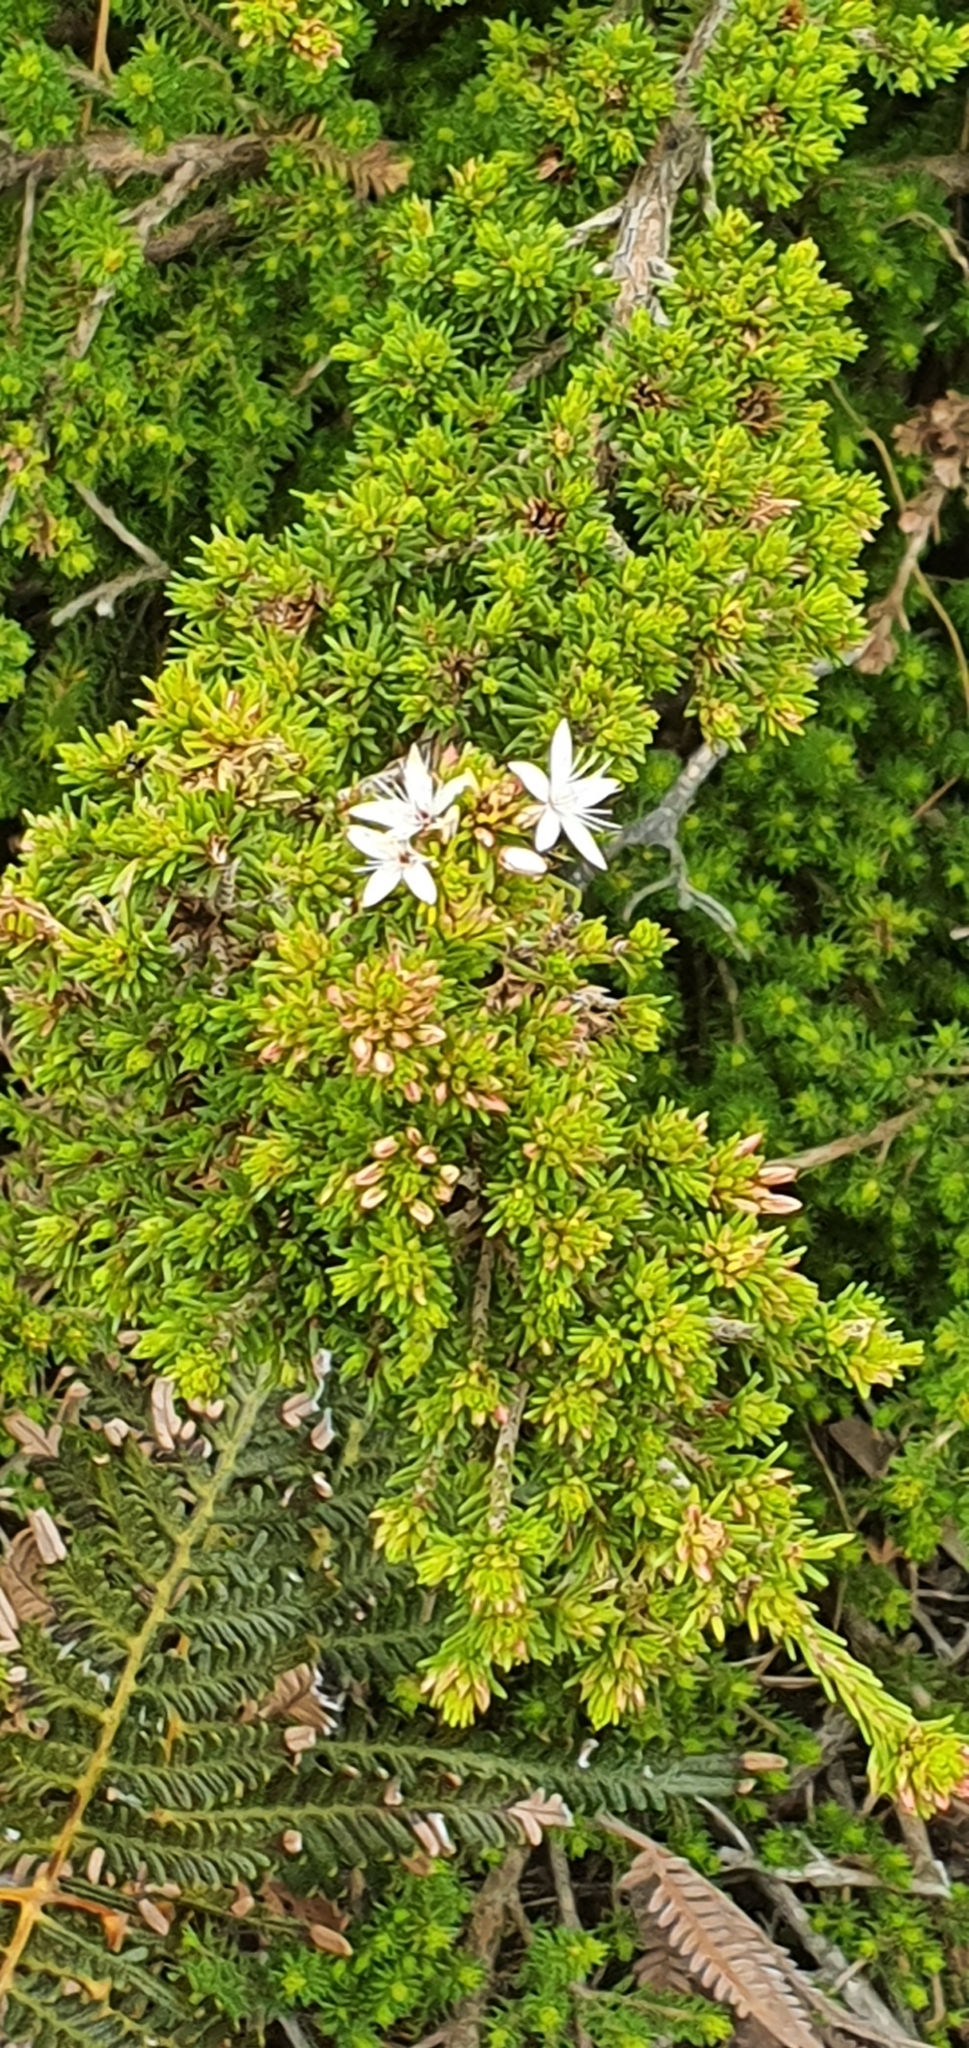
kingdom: Plantae
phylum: Tracheophyta
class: Magnoliopsida
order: Myrtales
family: Myrtaceae
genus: Calytrix
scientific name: Calytrix tetragona
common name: Common fringe myrtle
